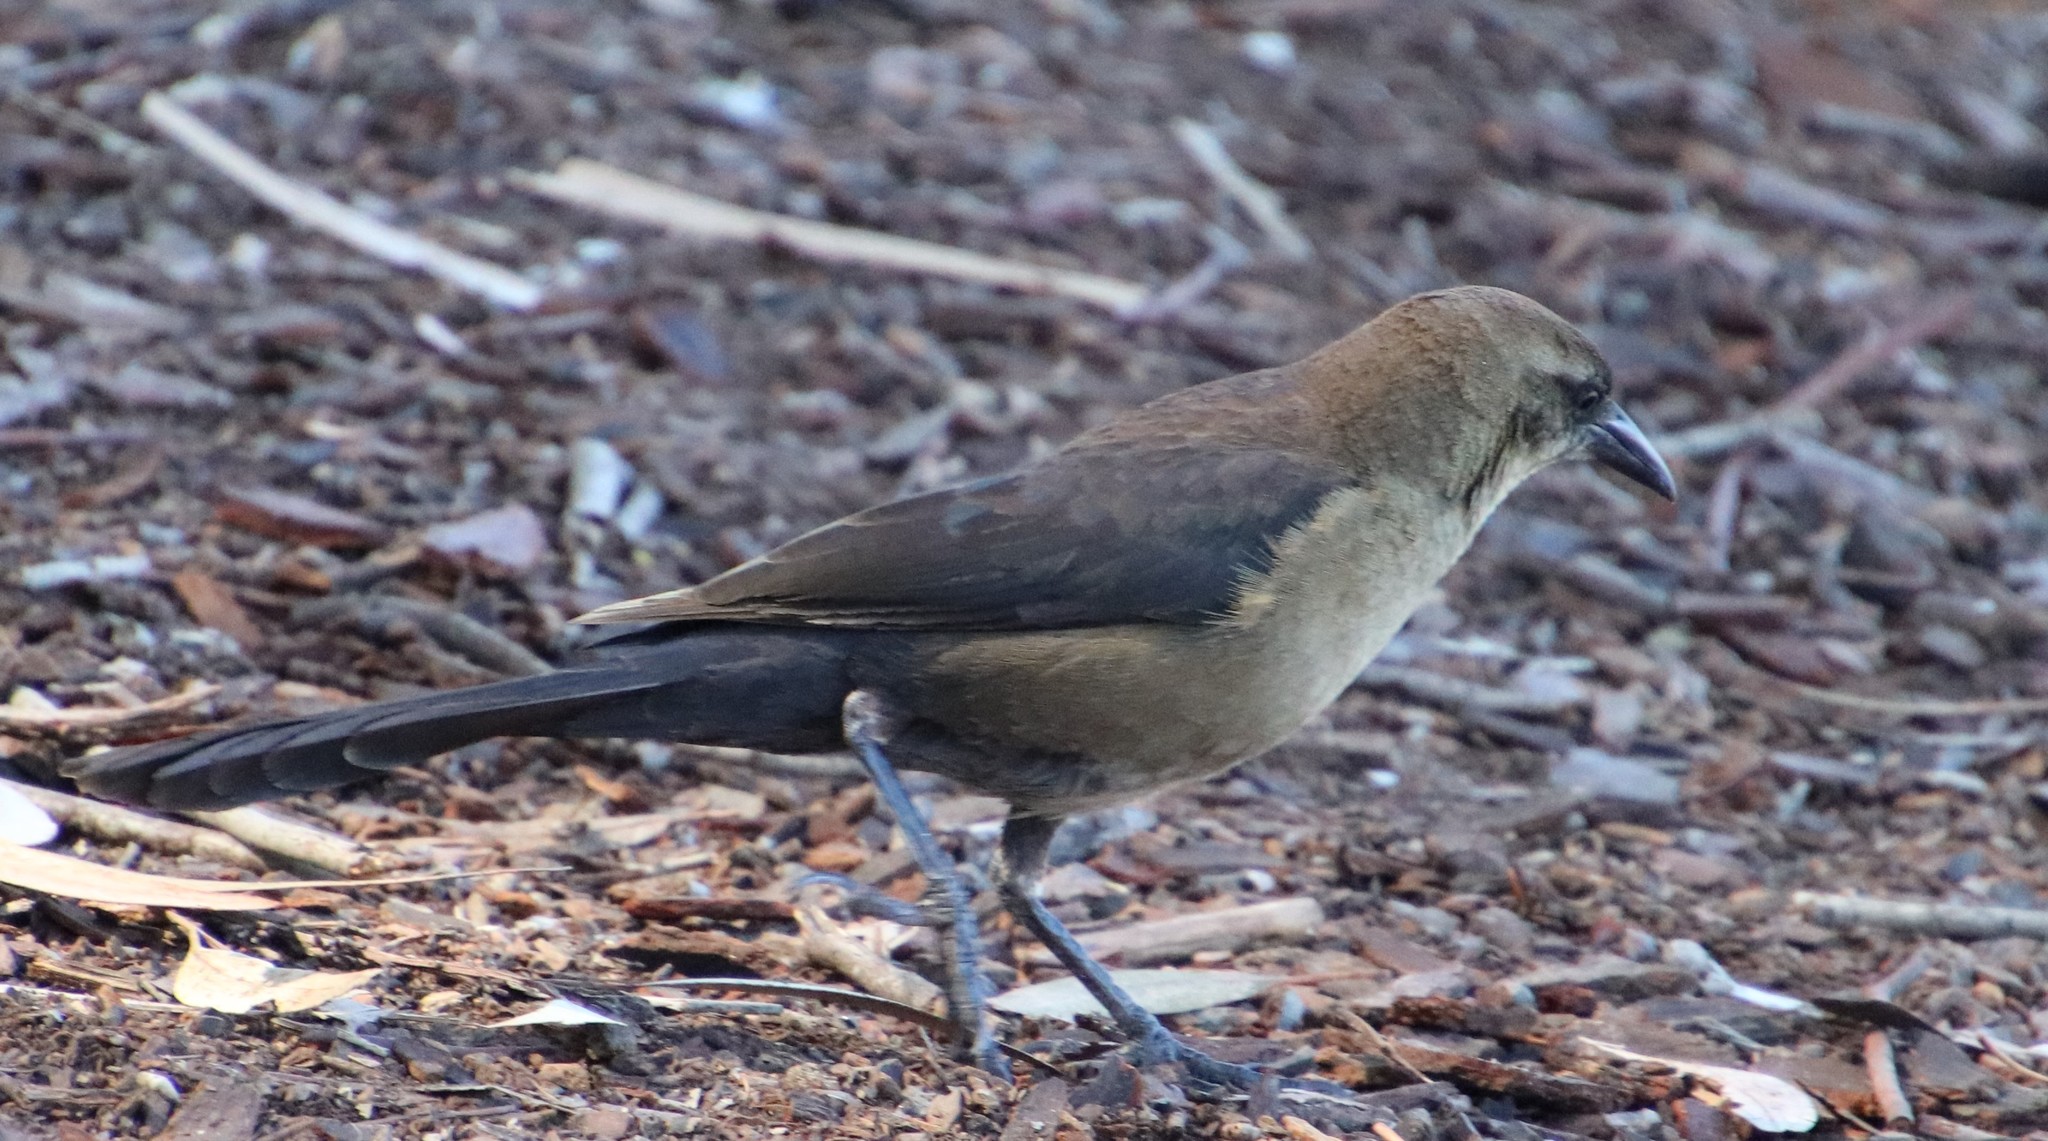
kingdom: Animalia
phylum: Chordata
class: Aves
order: Passeriformes
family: Icteridae
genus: Quiscalus
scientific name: Quiscalus mexicanus
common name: Great-tailed grackle
